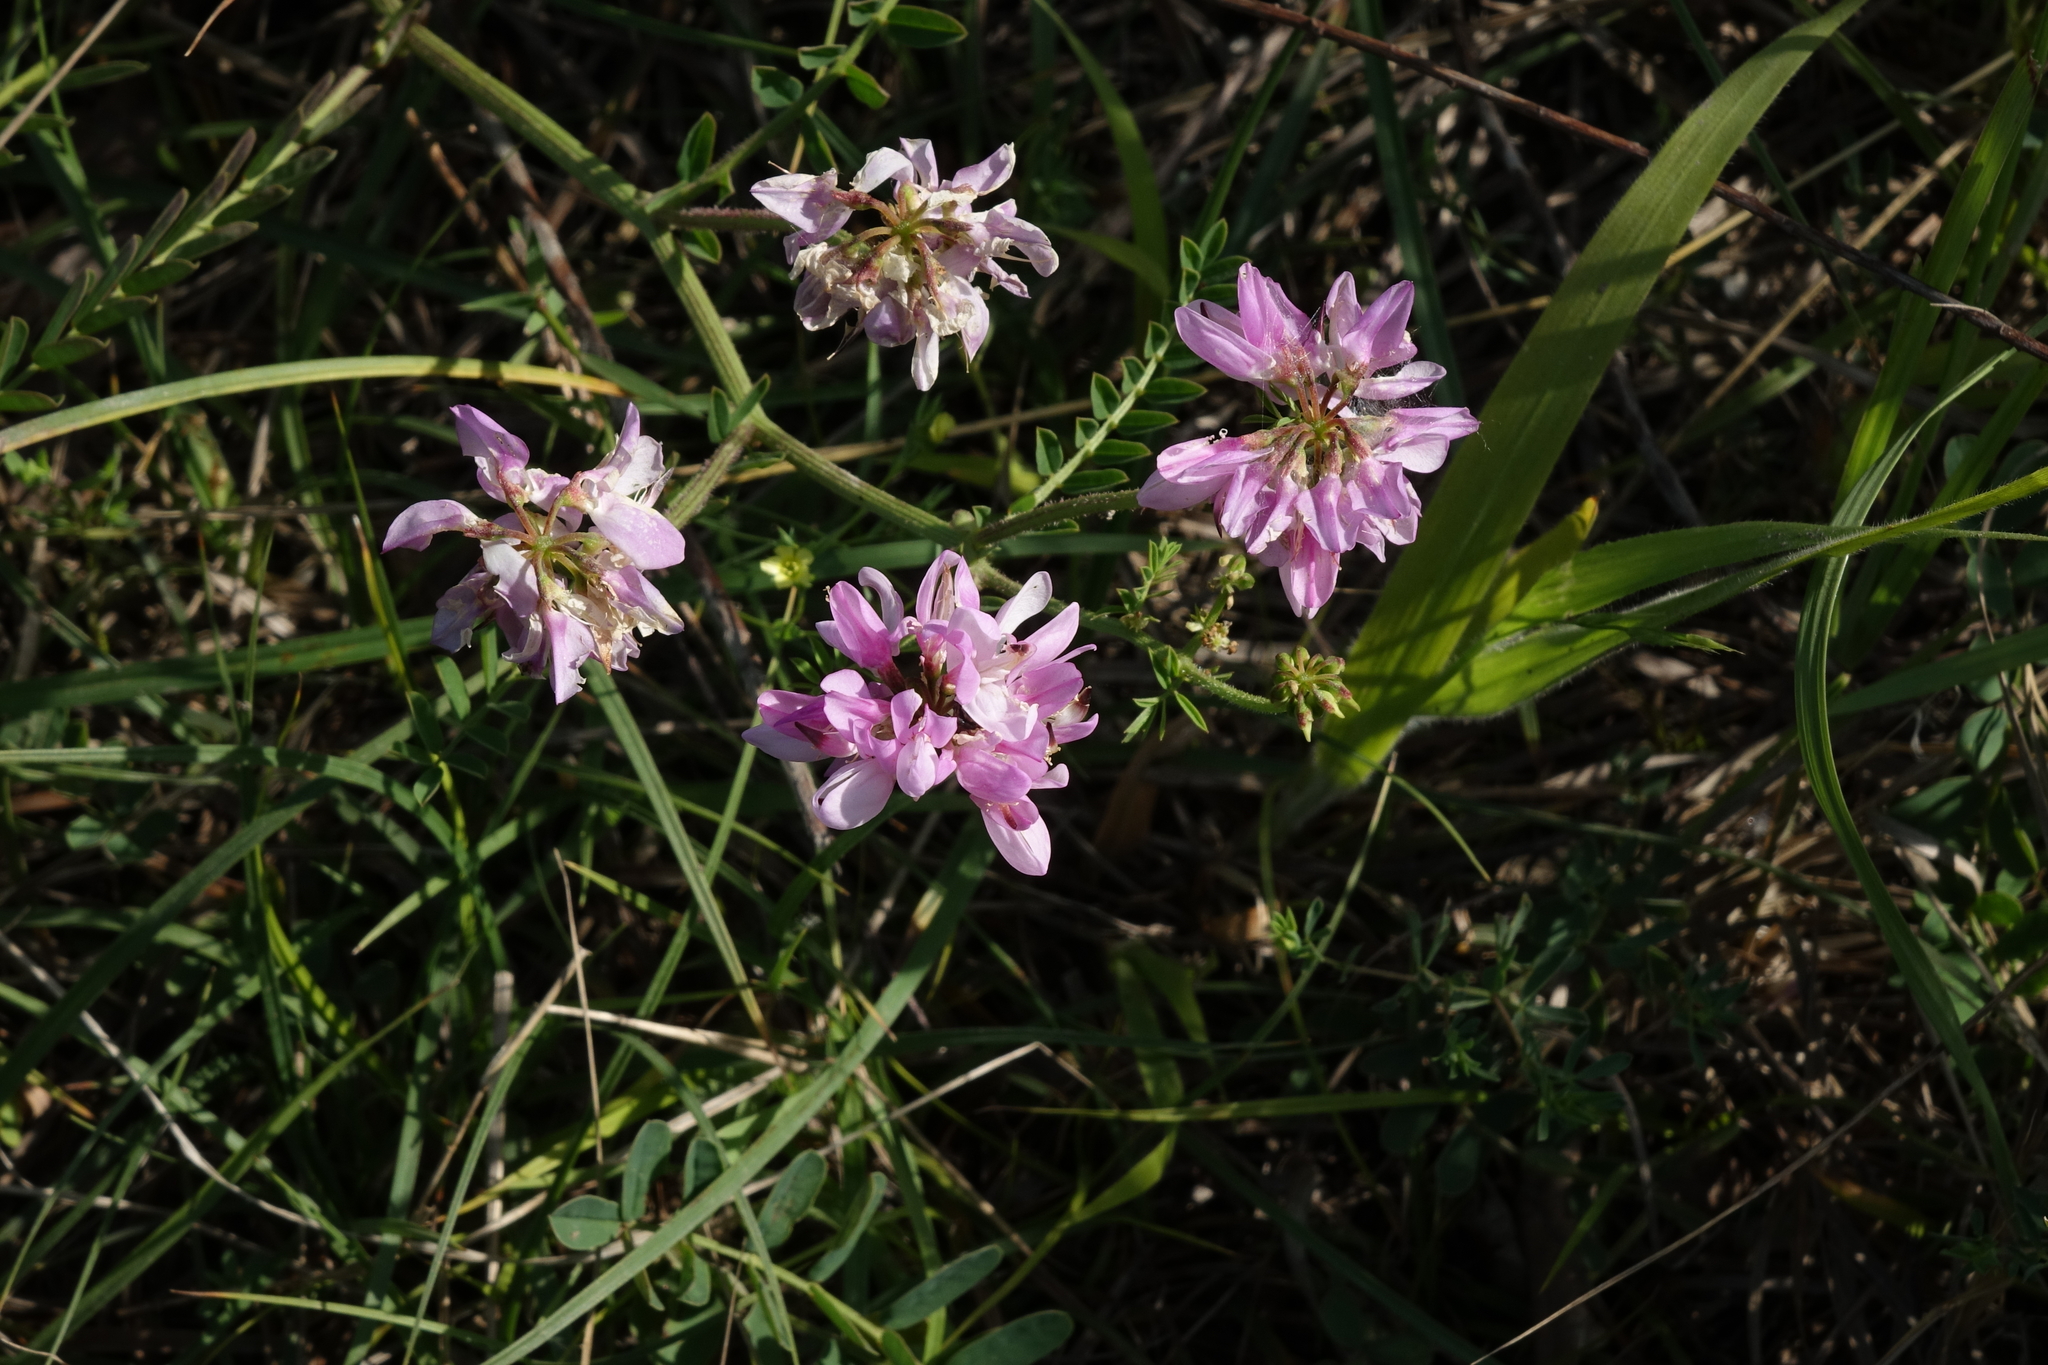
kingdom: Plantae
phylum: Tracheophyta
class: Magnoliopsida
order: Fabales
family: Fabaceae
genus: Coronilla
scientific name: Coronilla varia
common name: Crownvetch
